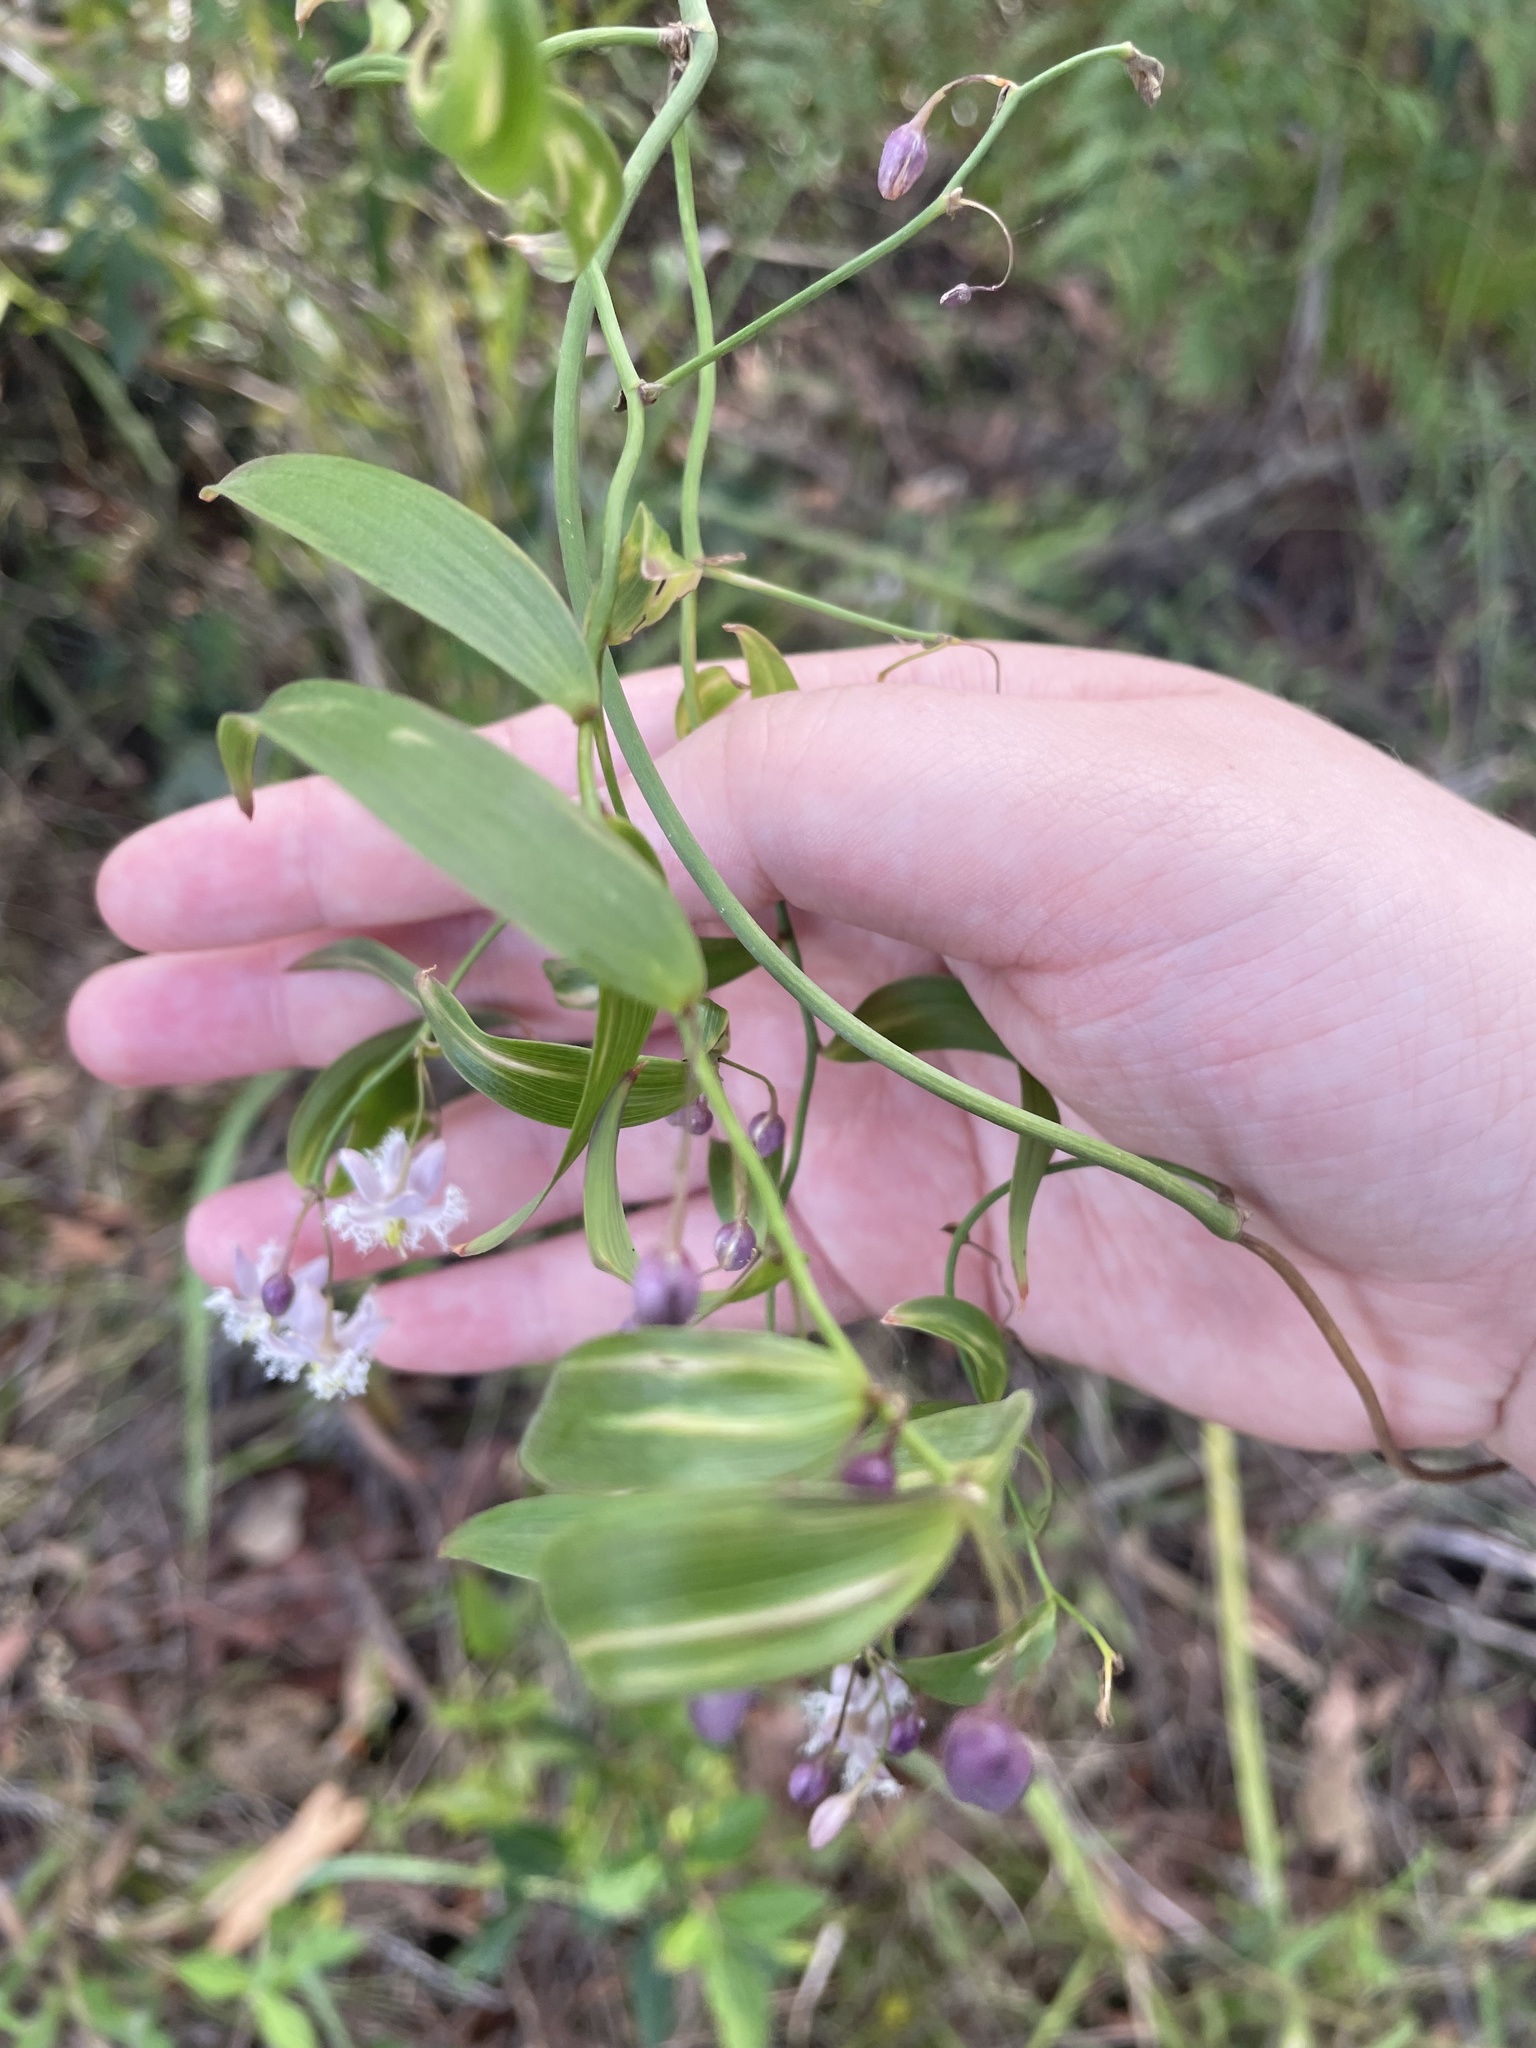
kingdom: Plantae
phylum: Tracheophyta
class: Liliopsida
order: Asparagales
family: Asparagaceae
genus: Eustrephus
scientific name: Eustrephus latifolius
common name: Orangevine
